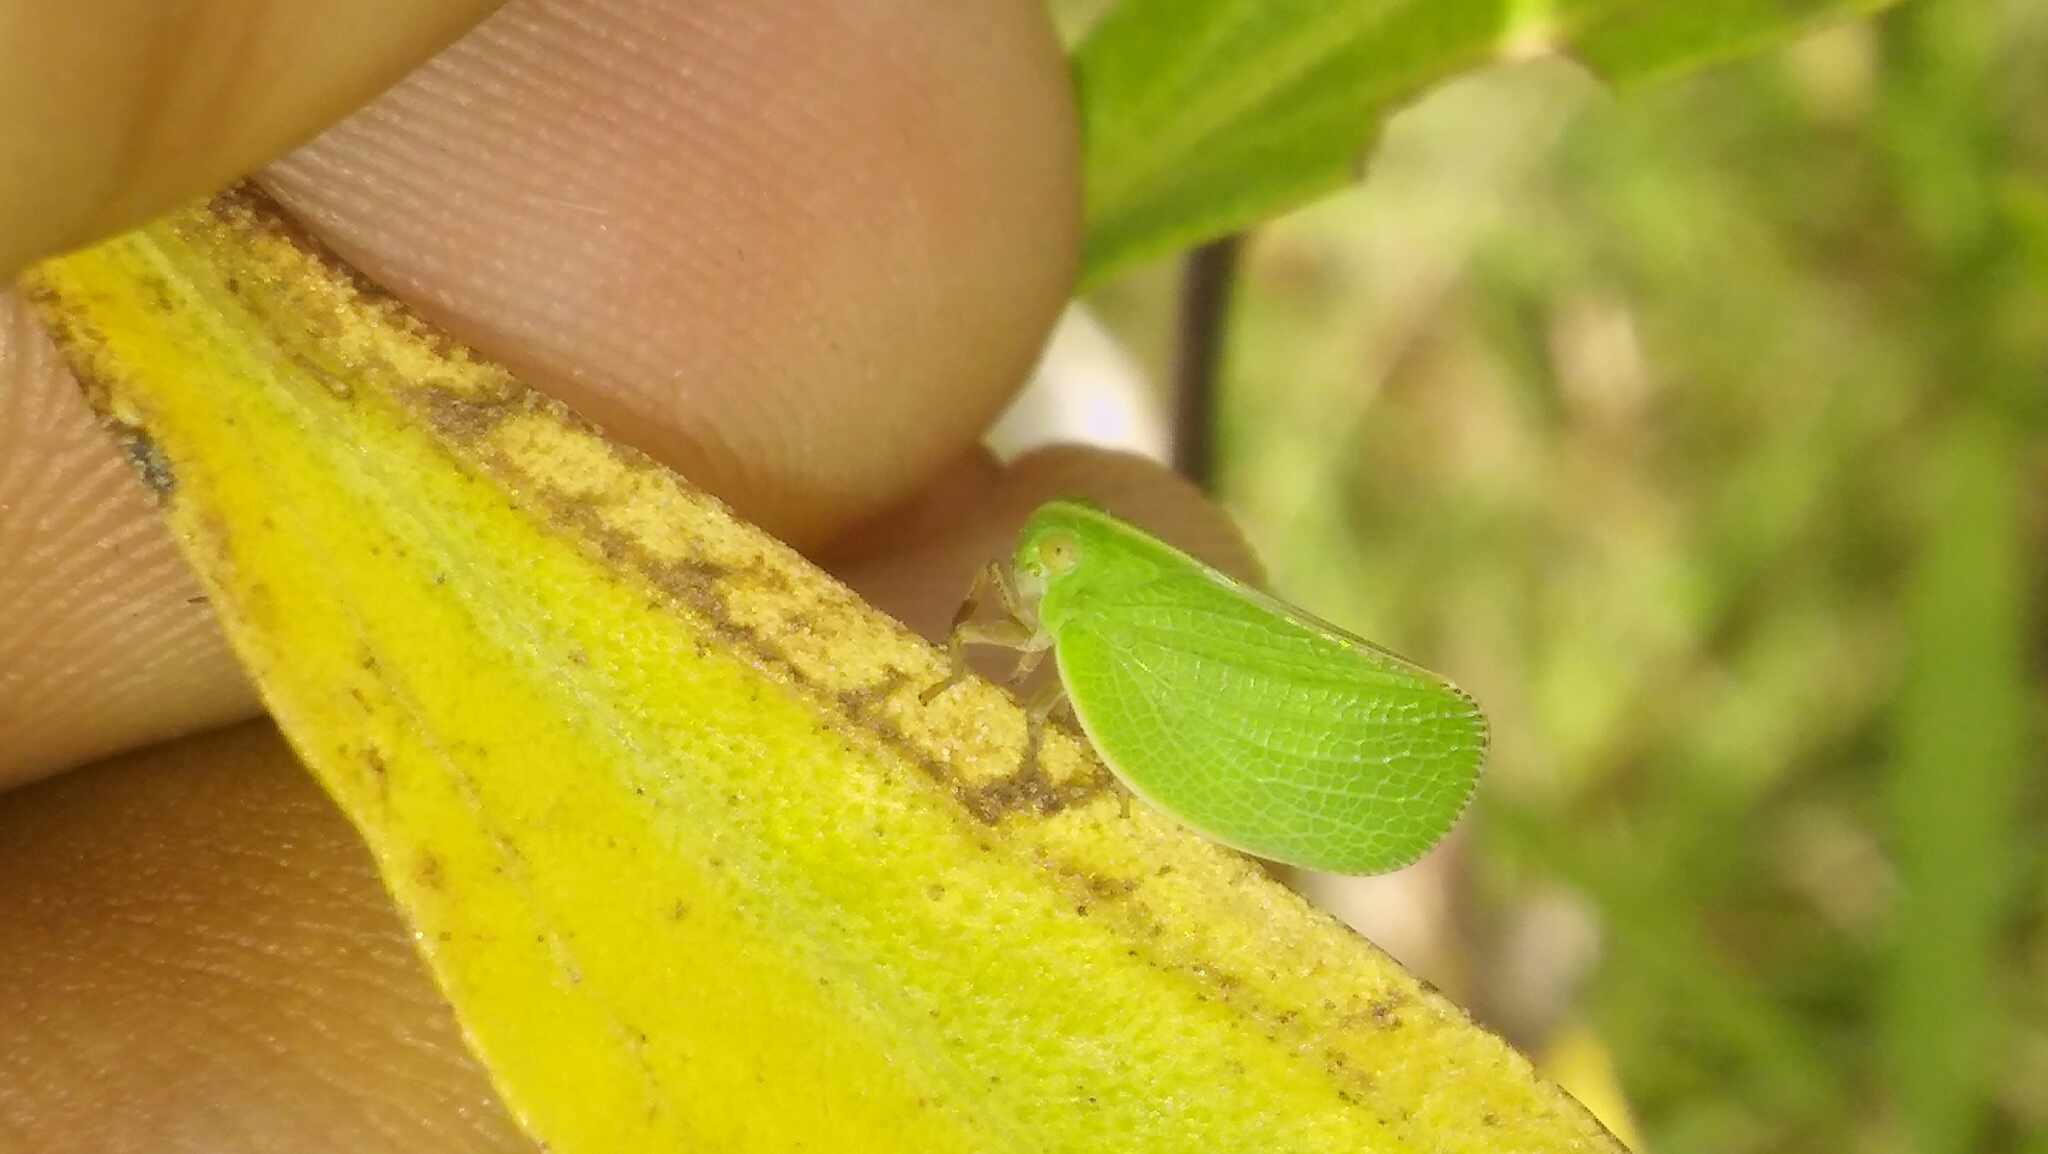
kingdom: Animalia
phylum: Arthropoda
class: Insecta
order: Hemiptera
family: Acanaloniidae
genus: Acanalonia
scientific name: Acanalonia chloris
